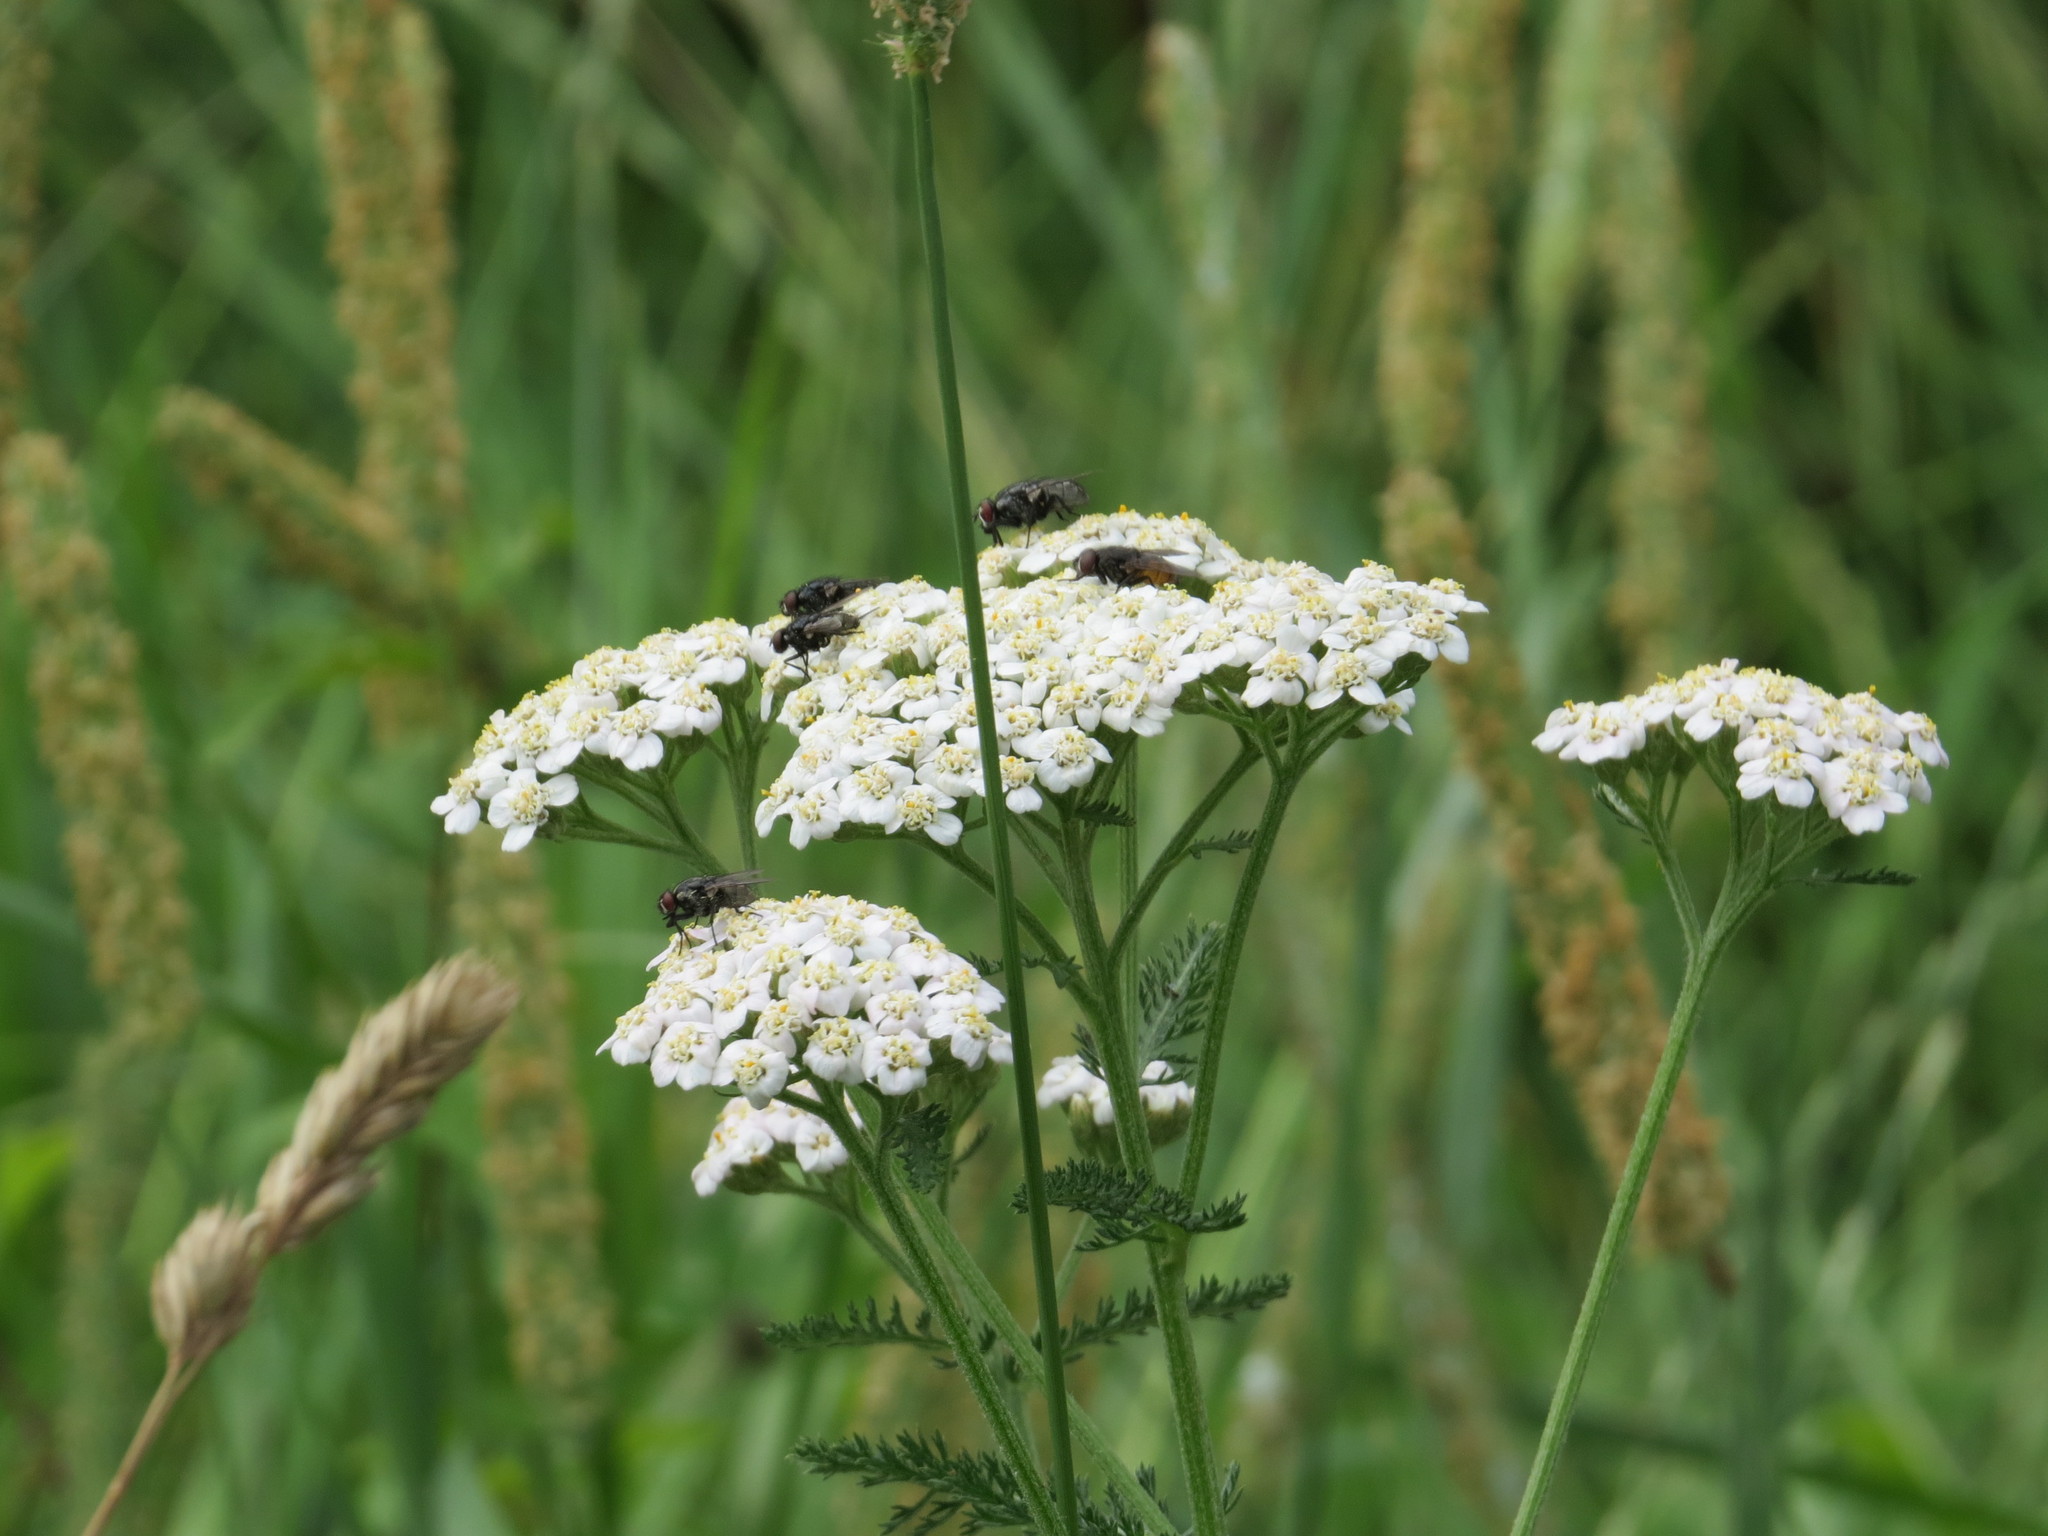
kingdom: Plantae
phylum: Tracheophyta
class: Magnoliopsida
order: Asterales
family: Asteraceae
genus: Achillea
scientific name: Achillea millefolium
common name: Yarrow
